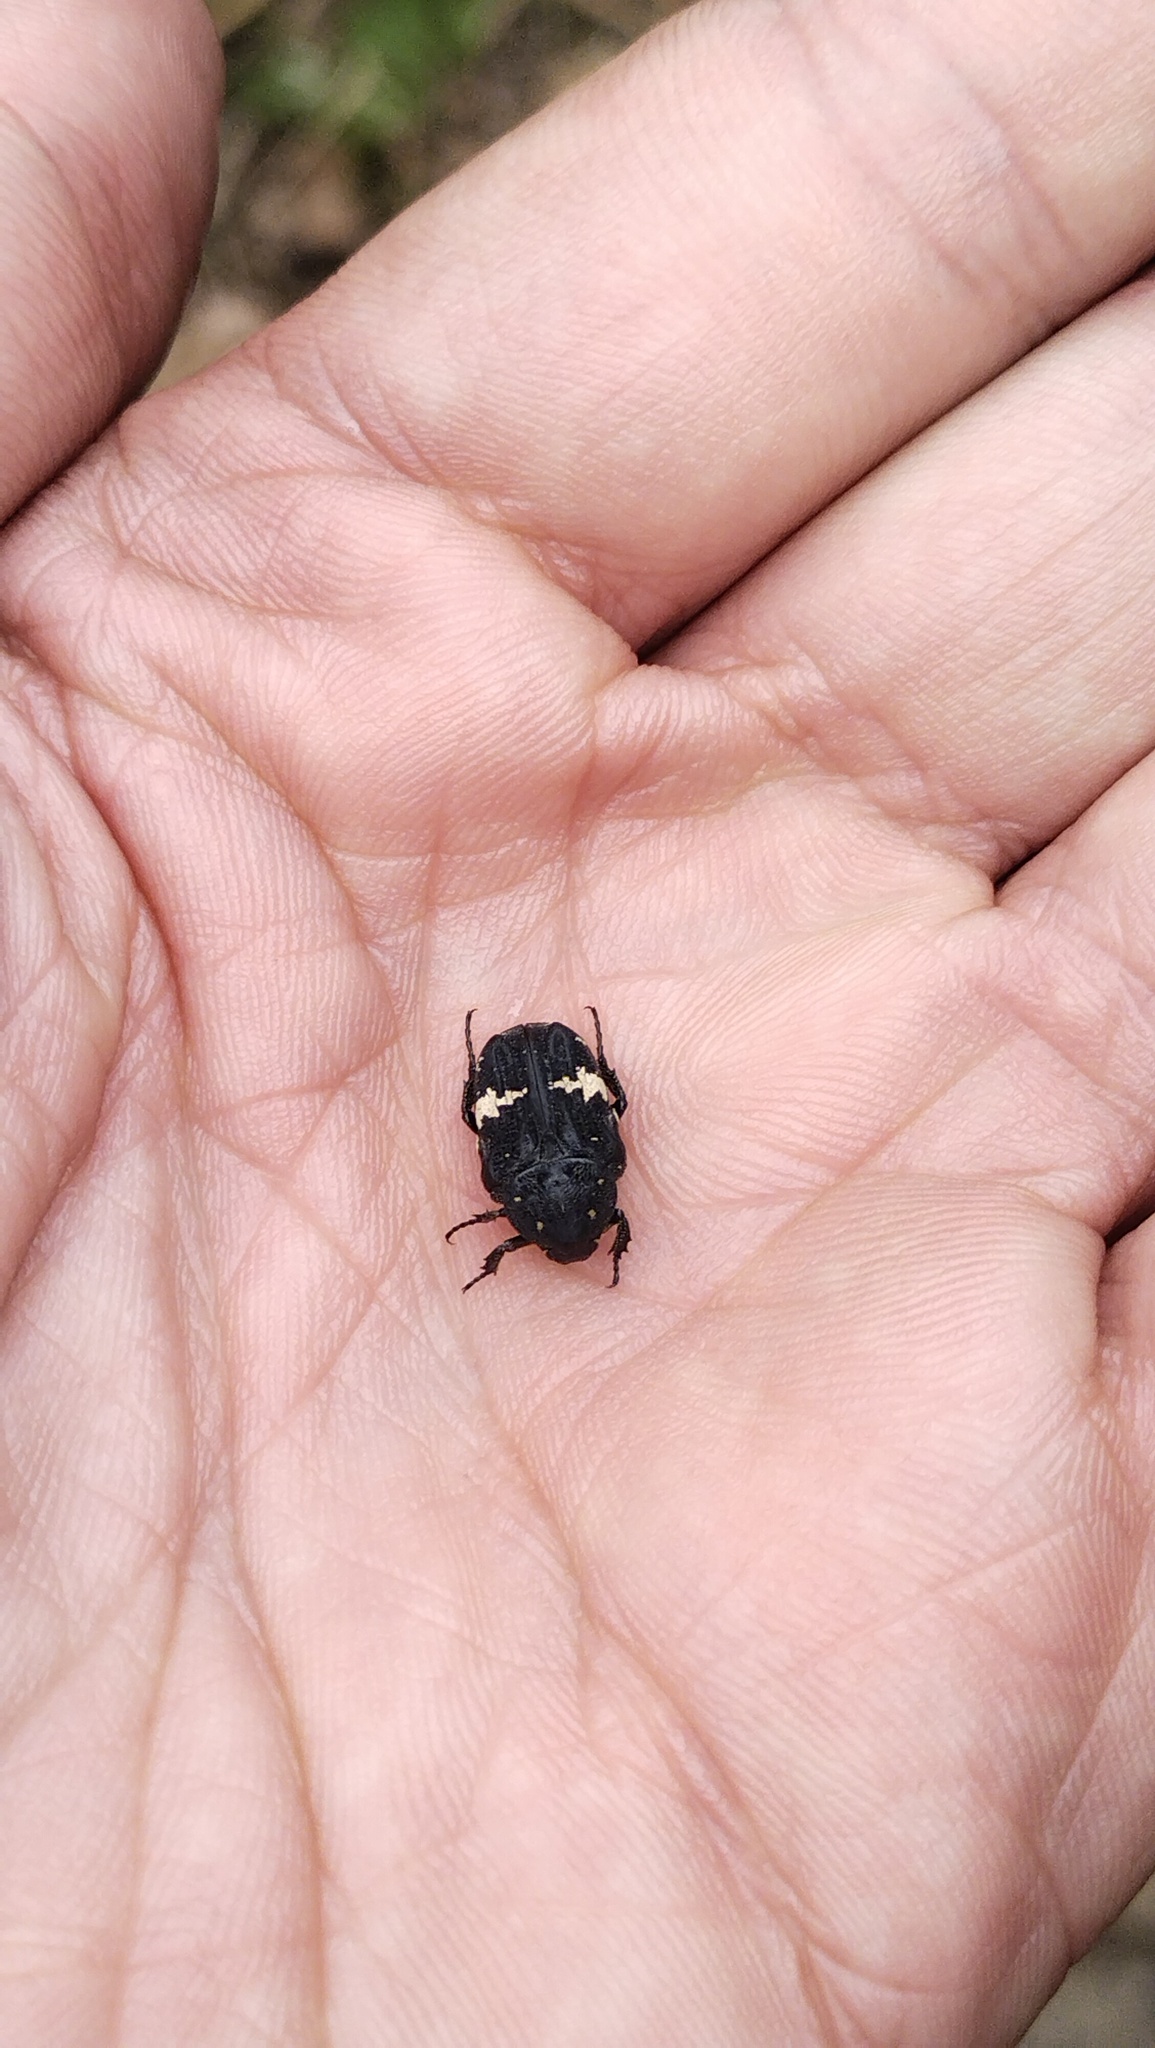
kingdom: Animalia
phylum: Arthropoda
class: Insecta
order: Coleoptera
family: Scarabaeidae
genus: Glycyphana
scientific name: Glycyphana fulvistemma
